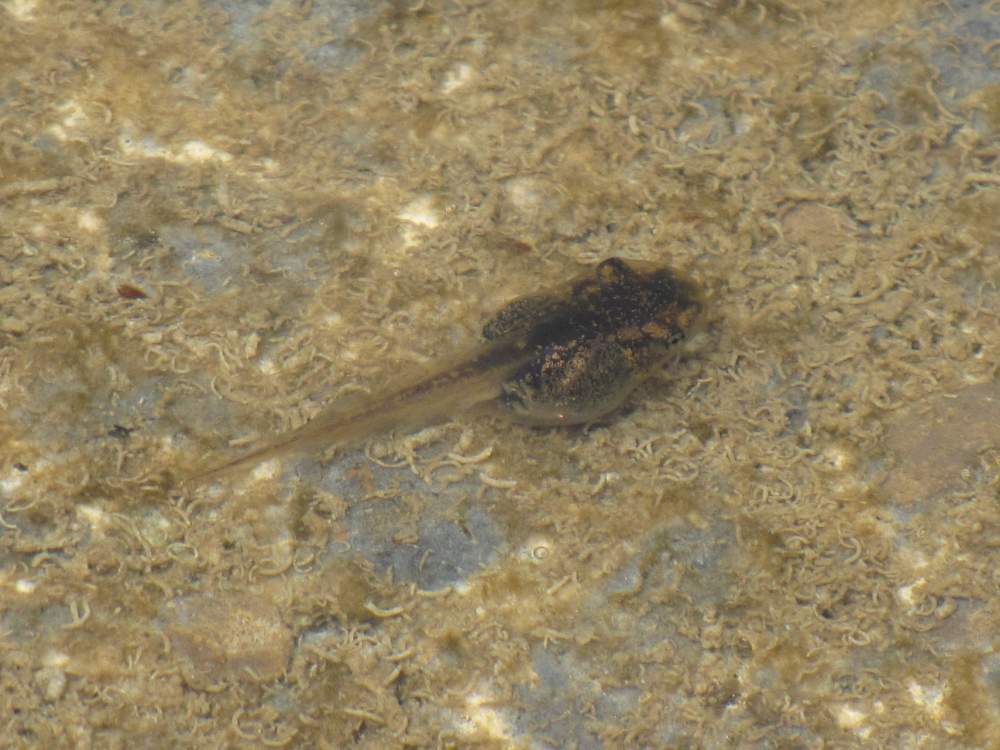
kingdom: Animalia
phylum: Chordata
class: Amphibia
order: Anura
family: Ranidae
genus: Lithobates
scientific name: Lithobates sylvaticus
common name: Wood frog
